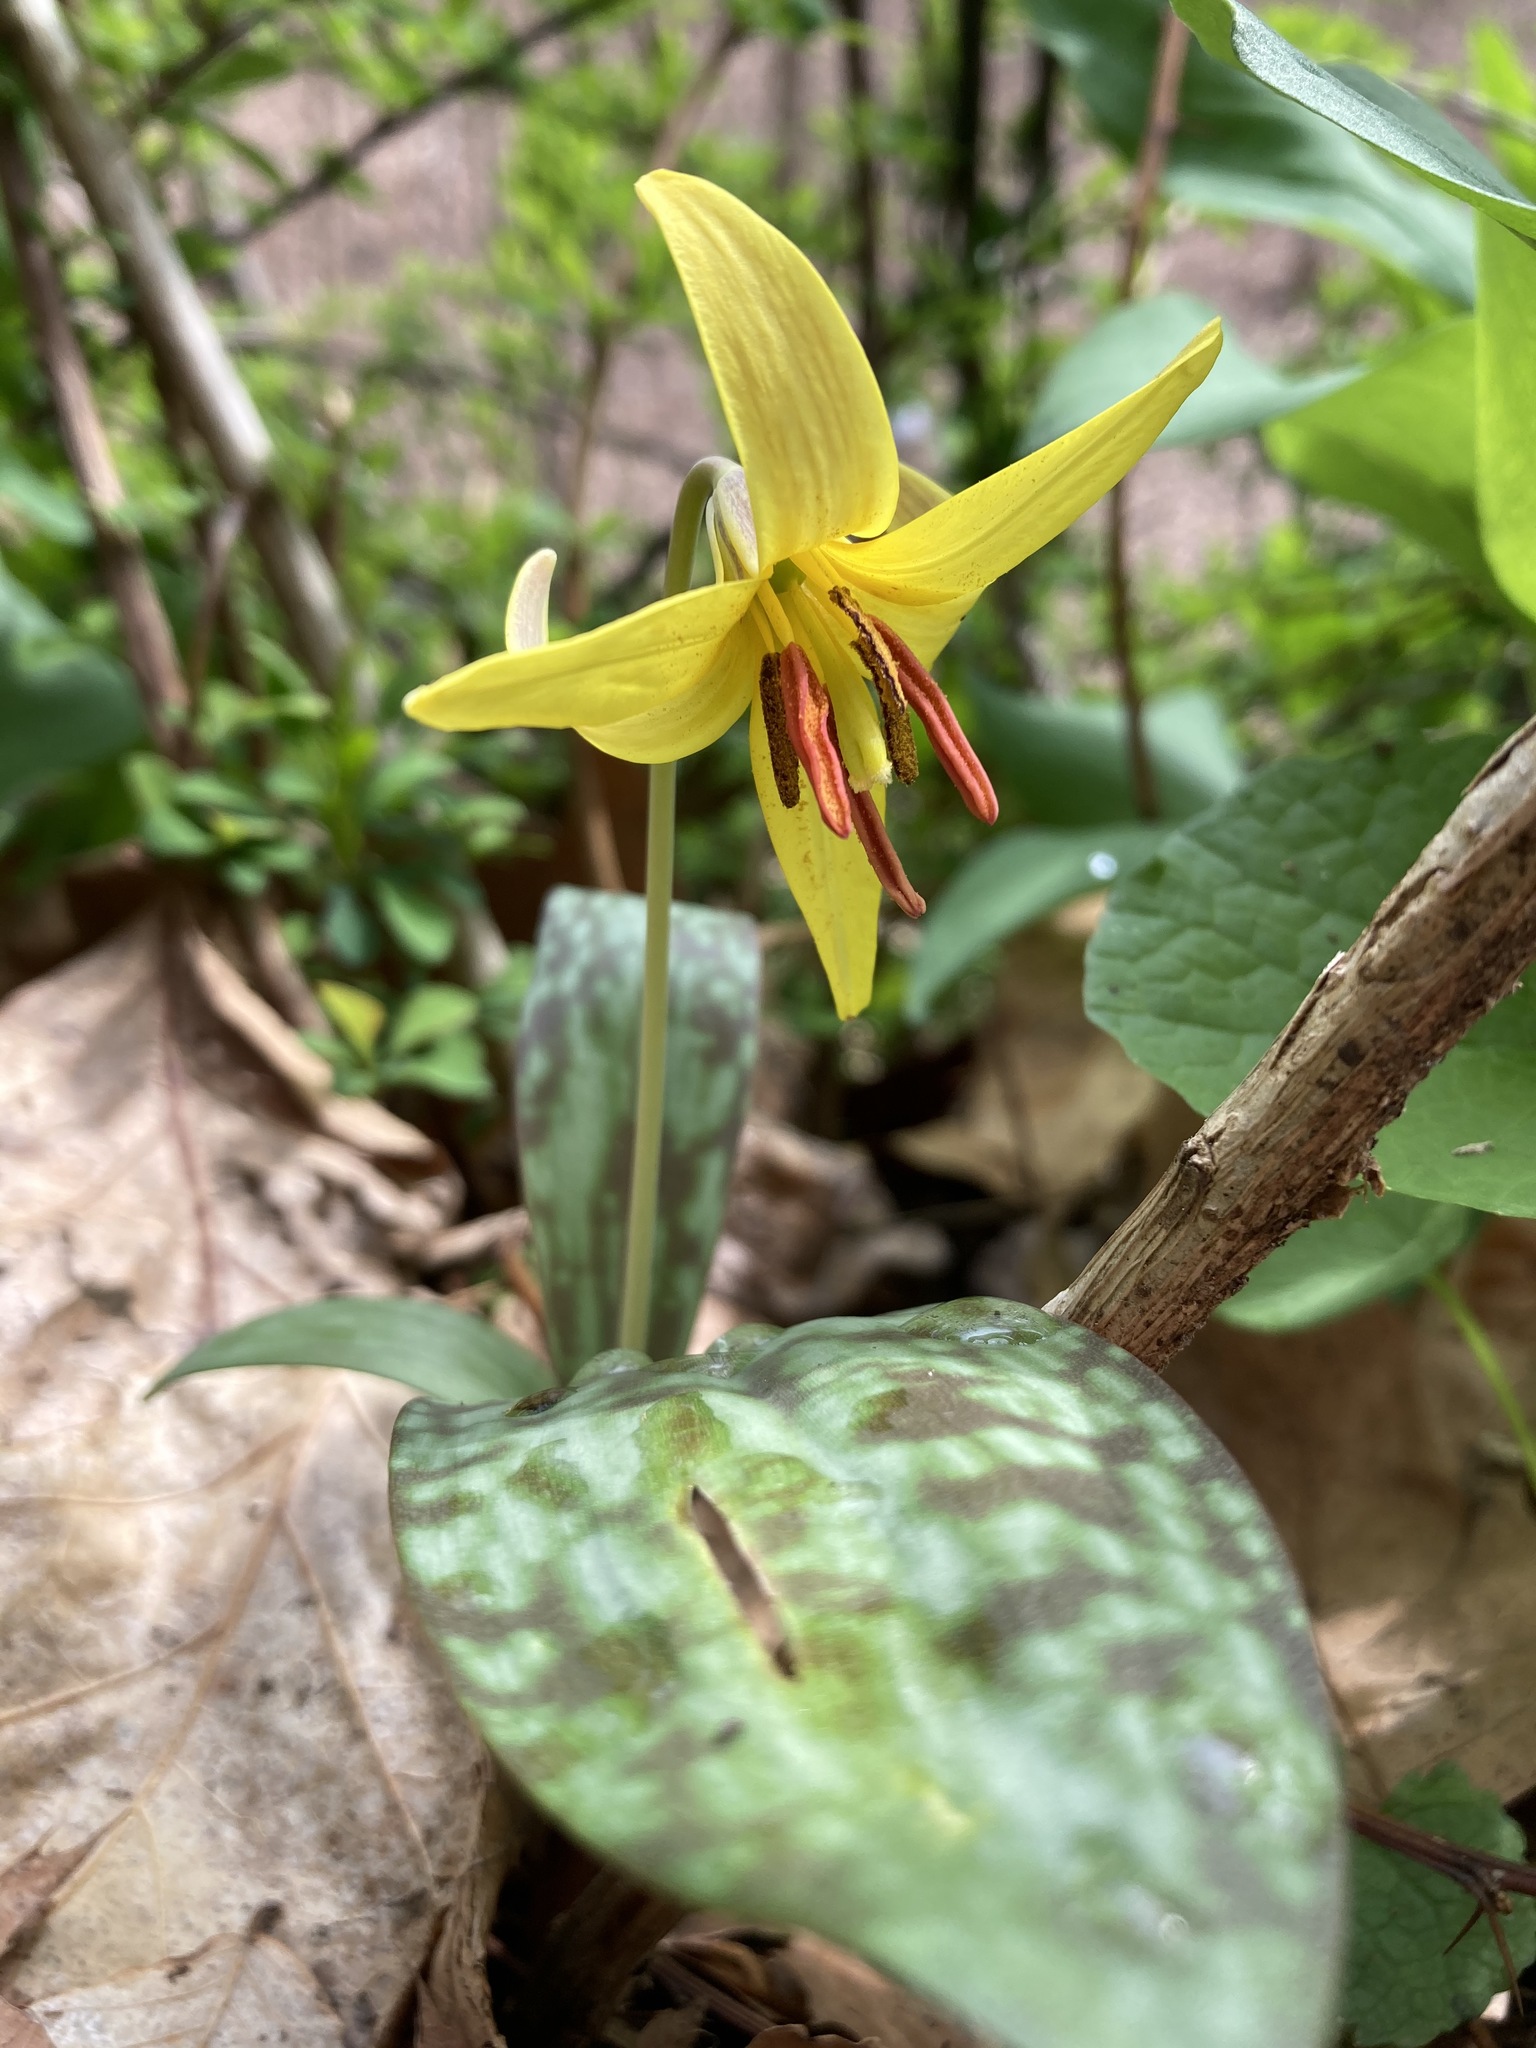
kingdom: Plantae
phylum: Tracheophyta
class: Liliopsida
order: Liliales
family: Liliaceae
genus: Erythronium
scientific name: Erythronium americanum
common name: Yellow adder's-tongue
